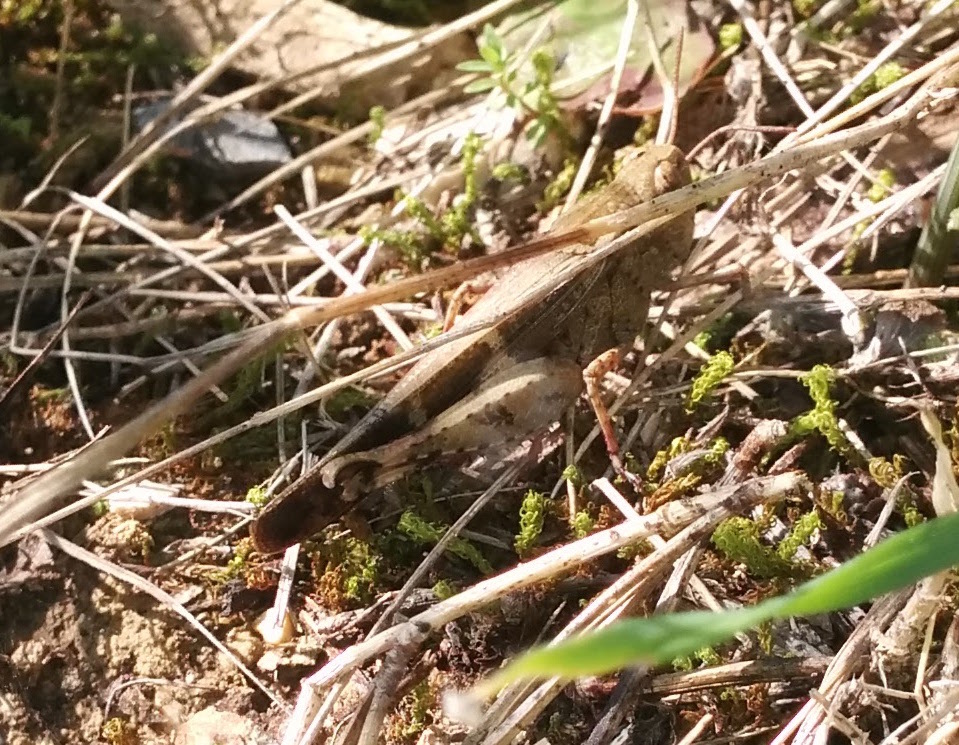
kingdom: Animalia
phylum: Arthropoda
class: Insecta
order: Orthoptera
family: Acrididae
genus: Aiolopus
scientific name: Aiolopus strepens
